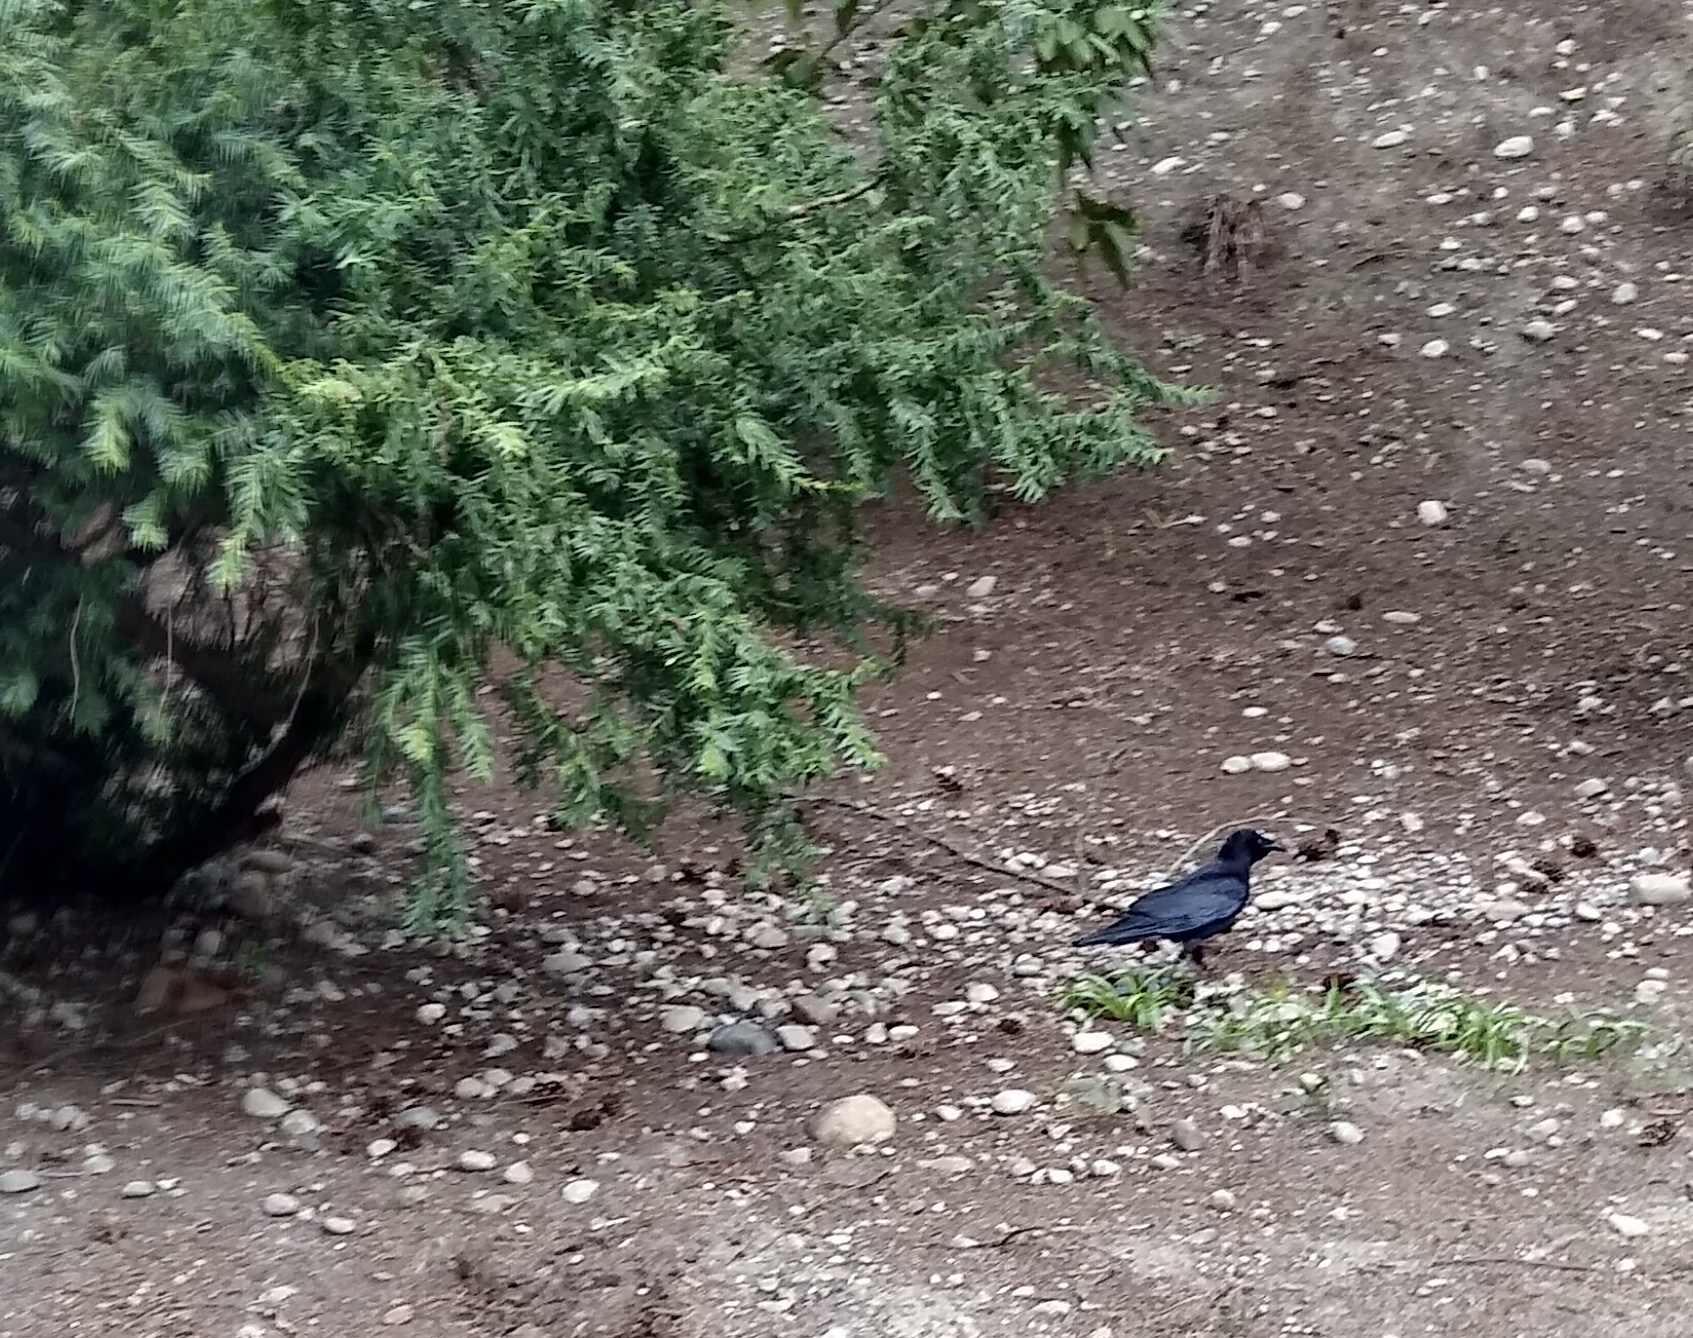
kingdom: Animalia
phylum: Chordata
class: Aves
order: Passeriformes
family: Corvidae
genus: Corvus
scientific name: Corvus brachyrhynchos
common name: American crow
